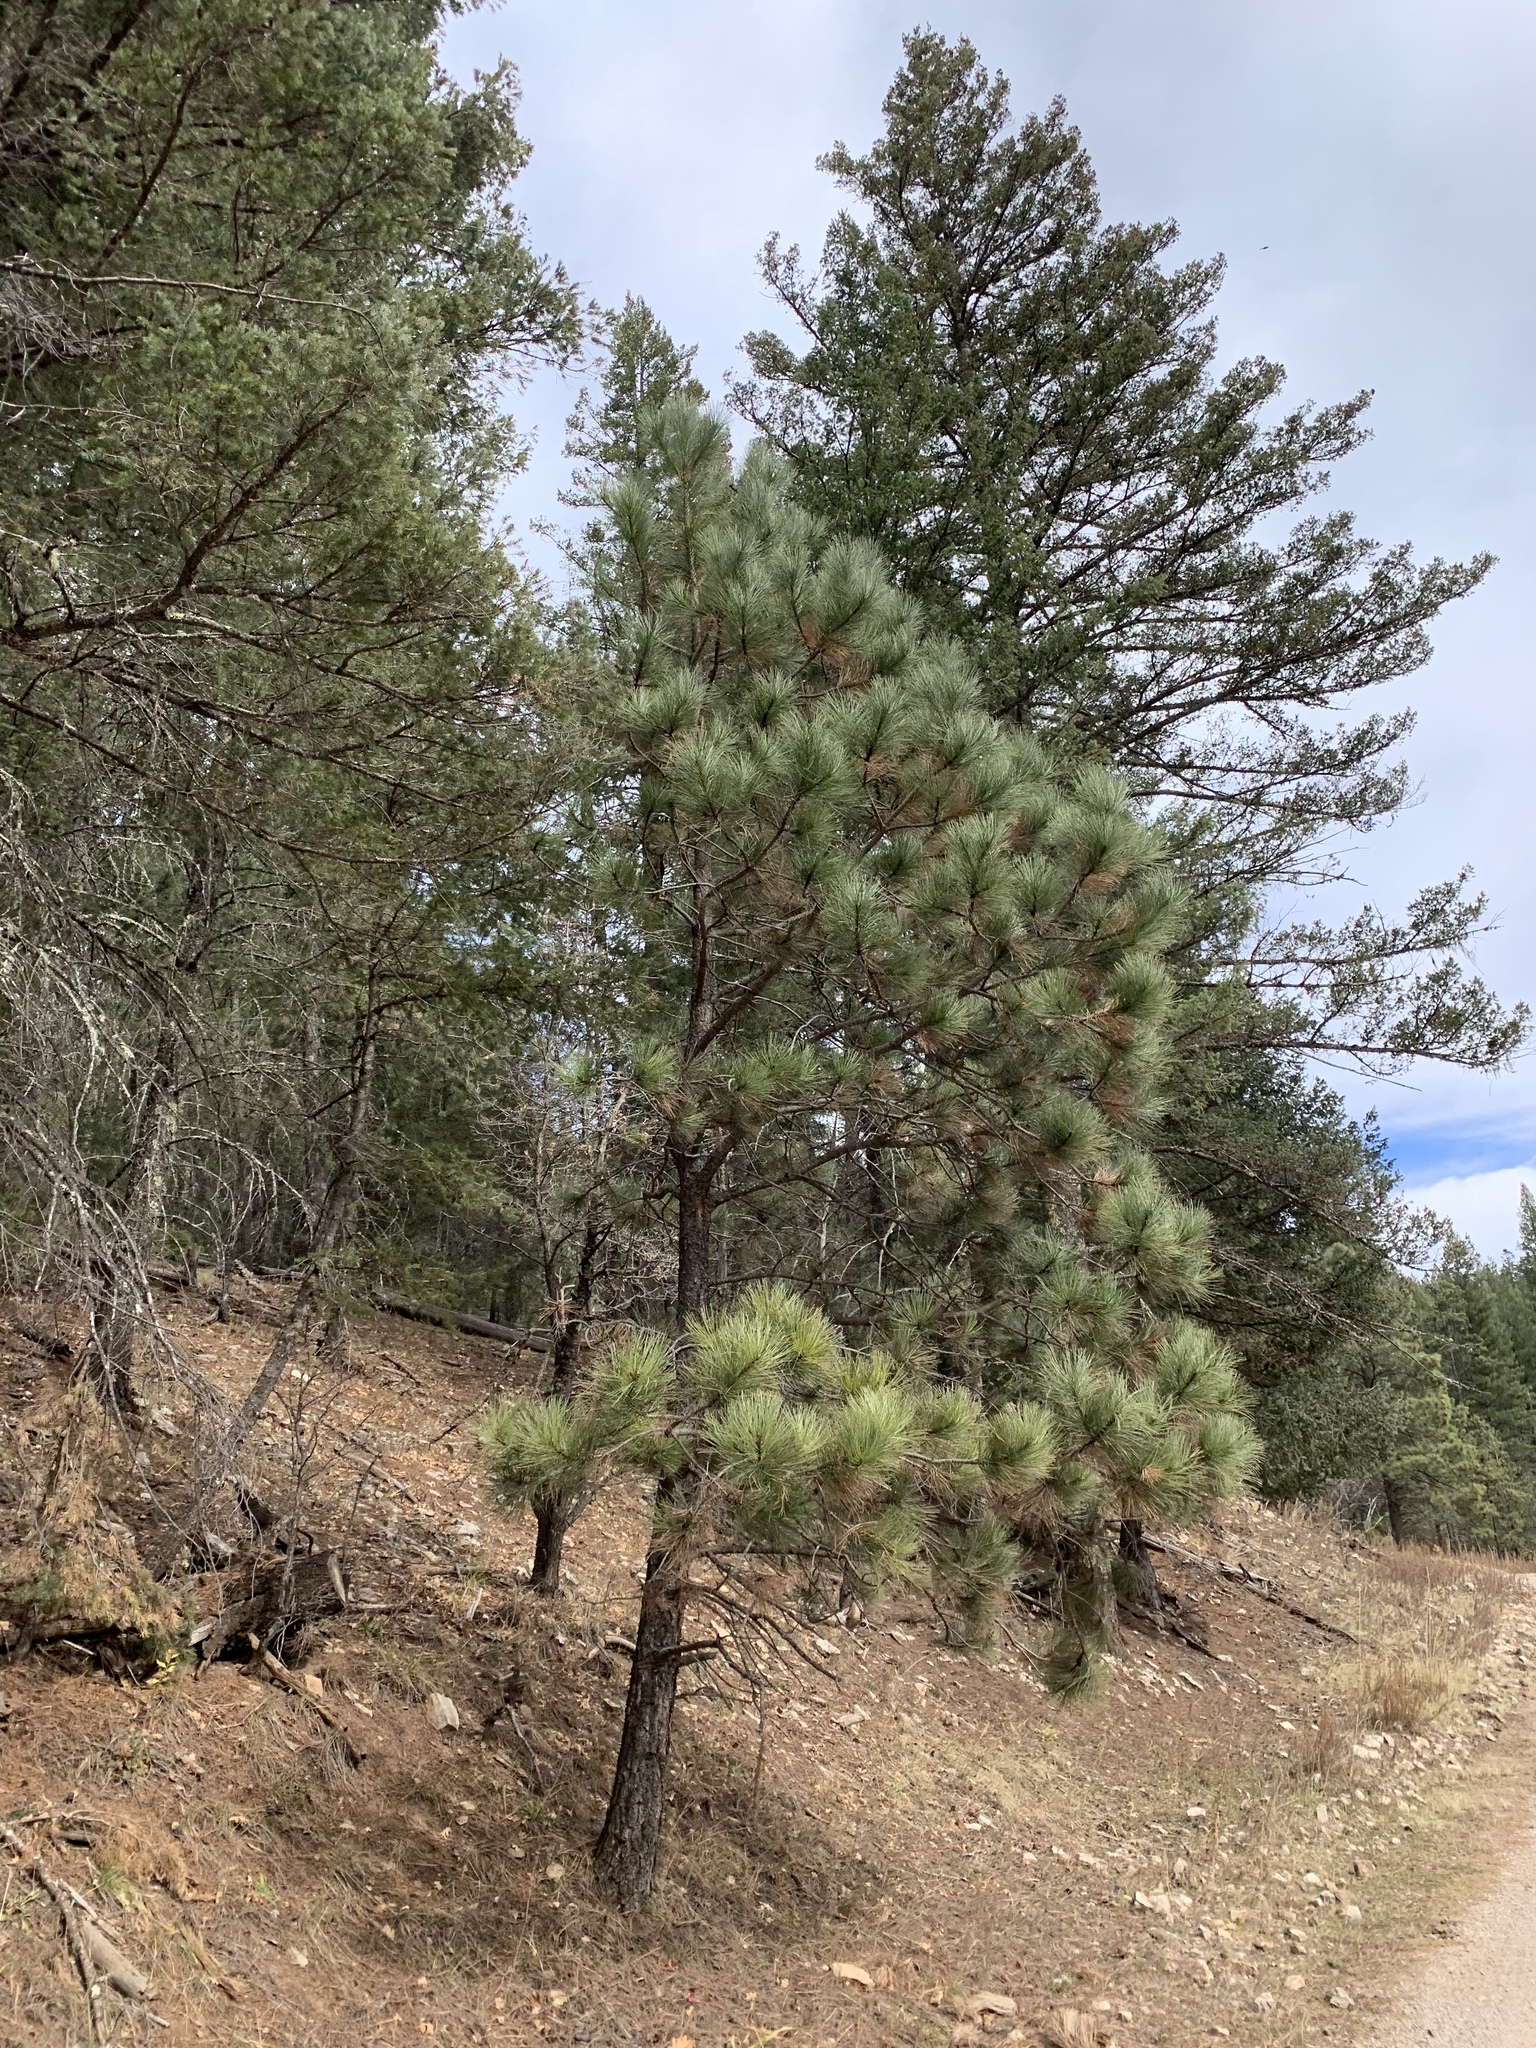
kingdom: Plantae
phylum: Tracheophyta
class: Pinopsida
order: Pinales
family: Pinaceae
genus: Pinus
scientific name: Pinus ponderosa
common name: Western yellow-pine
